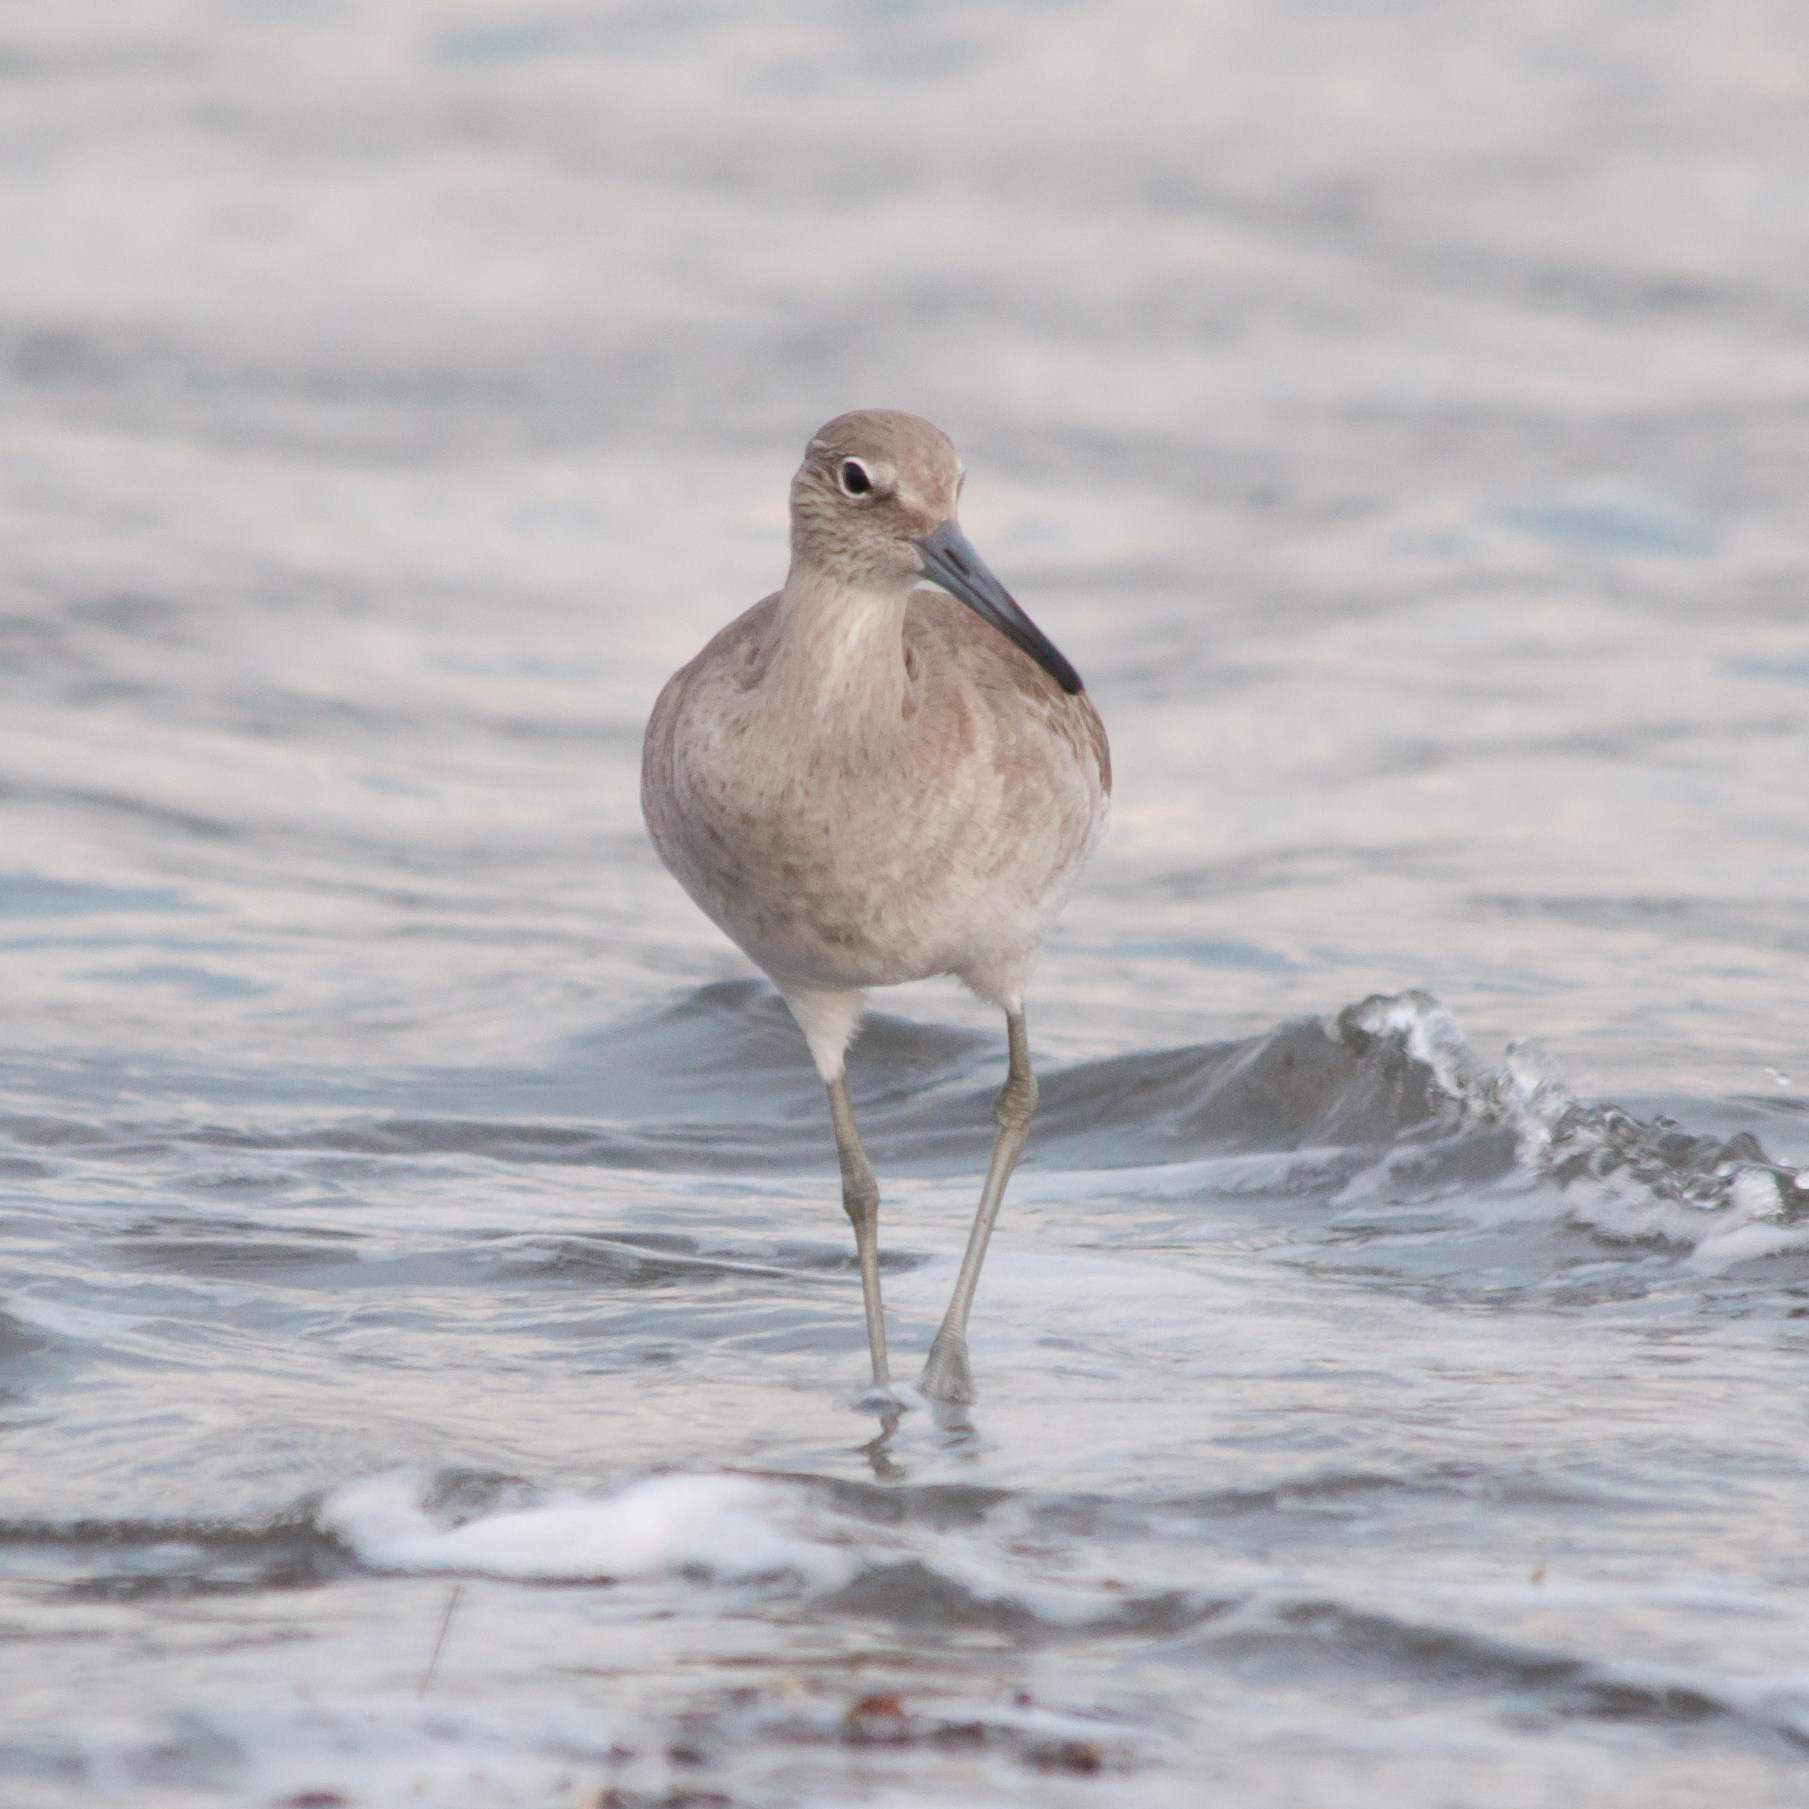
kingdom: Animalia
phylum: Chordata
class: Aves
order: Charadriiformes
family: Scolopacidae
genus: Tringa
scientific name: Tringa semipalmata
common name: Willet
